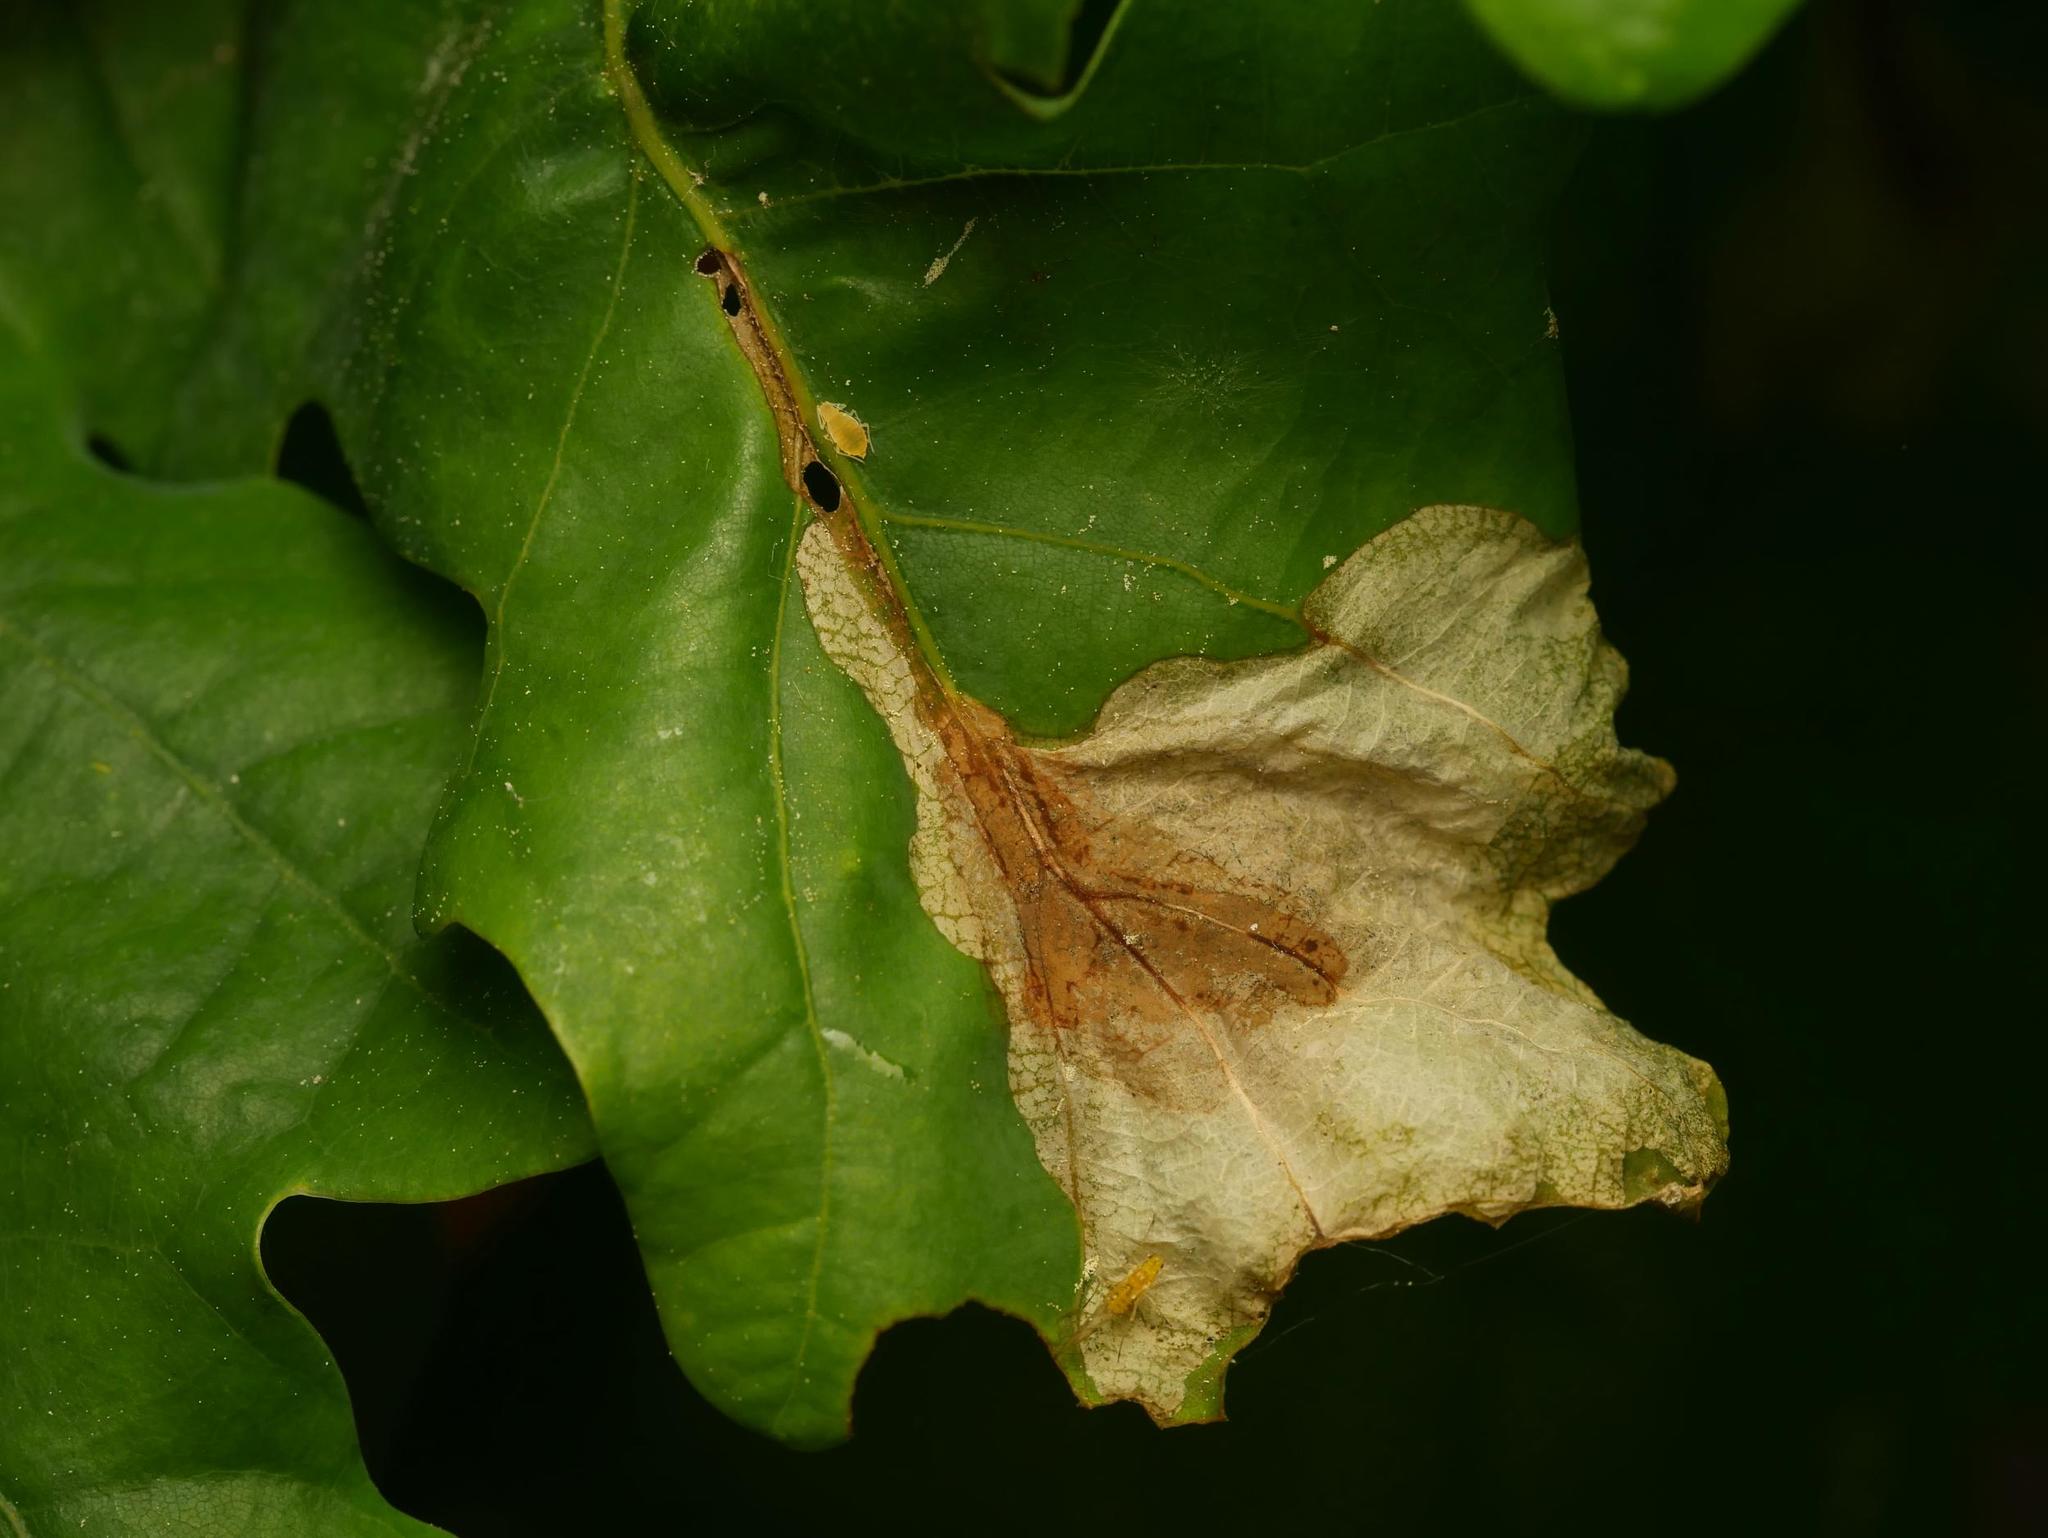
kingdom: Animalia
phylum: Arthropoda
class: Insecta
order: Coleoptera
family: Curculionidae
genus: Orchestes
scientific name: Orchestes quercus
